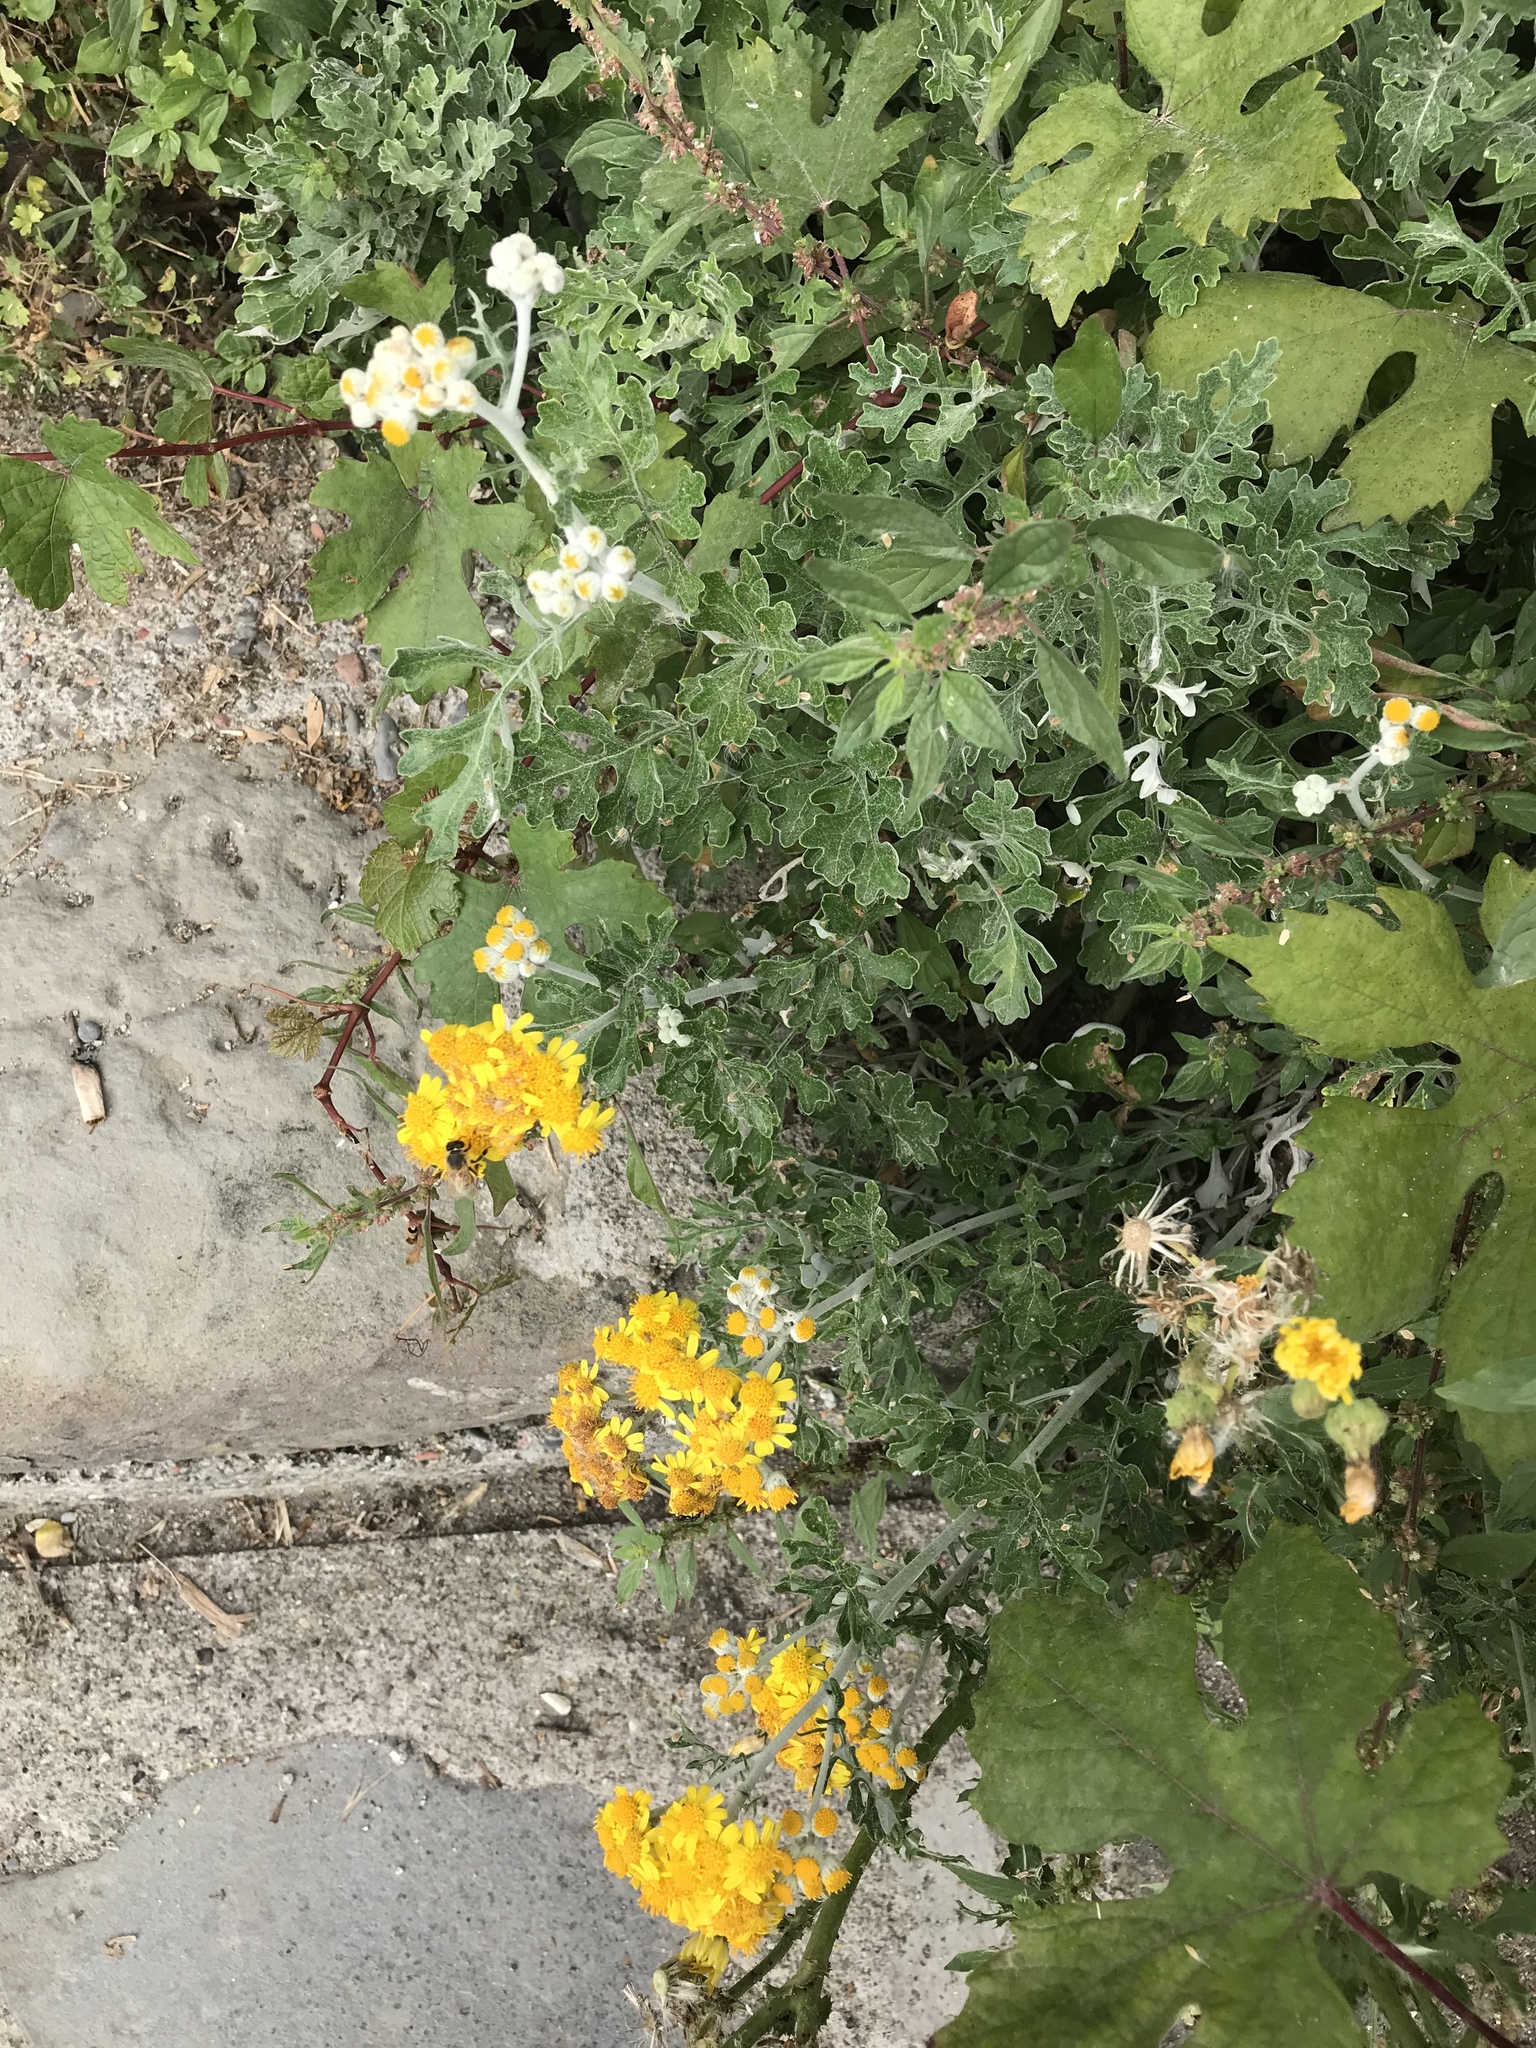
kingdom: Plantae
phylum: Tracheophyta
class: Magnoliopsida
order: Asterales
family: Asteraceae
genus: Jacobaea
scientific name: Jacobaea maritima
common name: Silver ragwort
